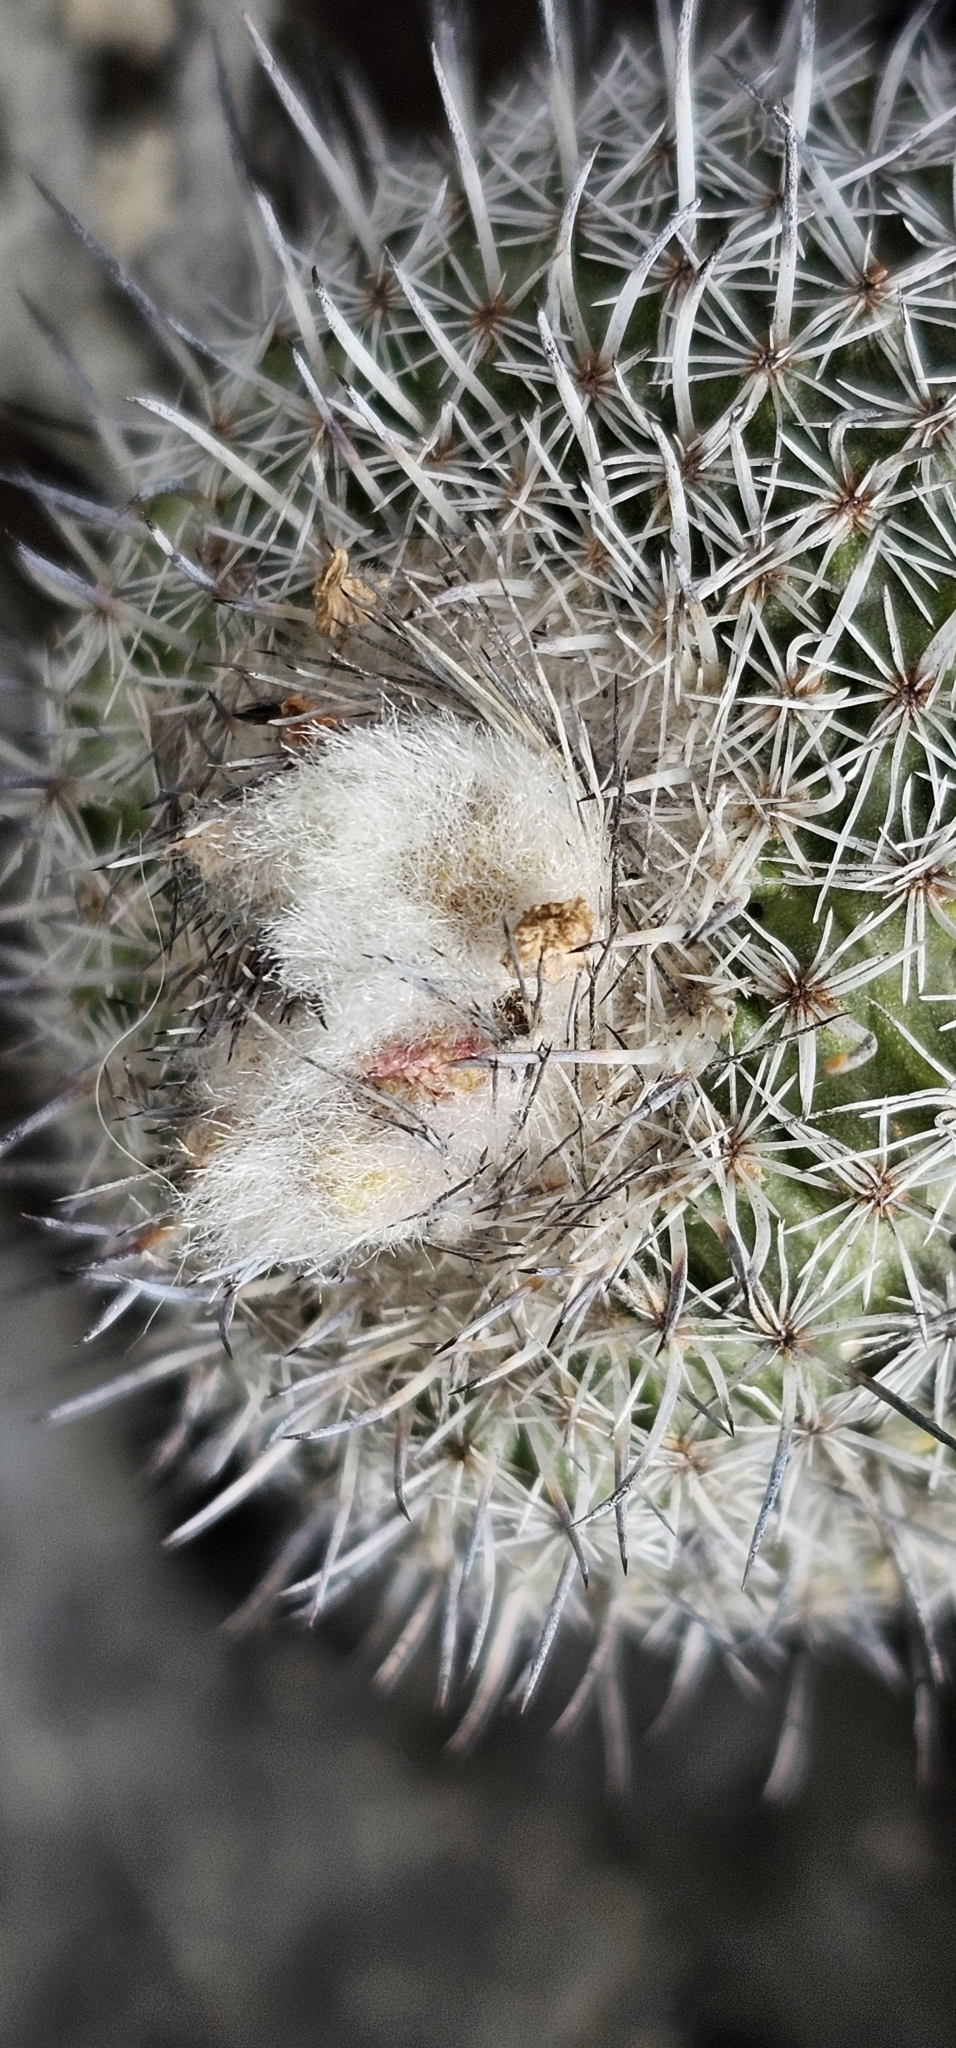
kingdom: Plantae
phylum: Tracheophyta
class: Magnoliopsida
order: Caryophyllales
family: Cactaceae
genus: Epithelantha
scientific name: Epithelantha greggii
